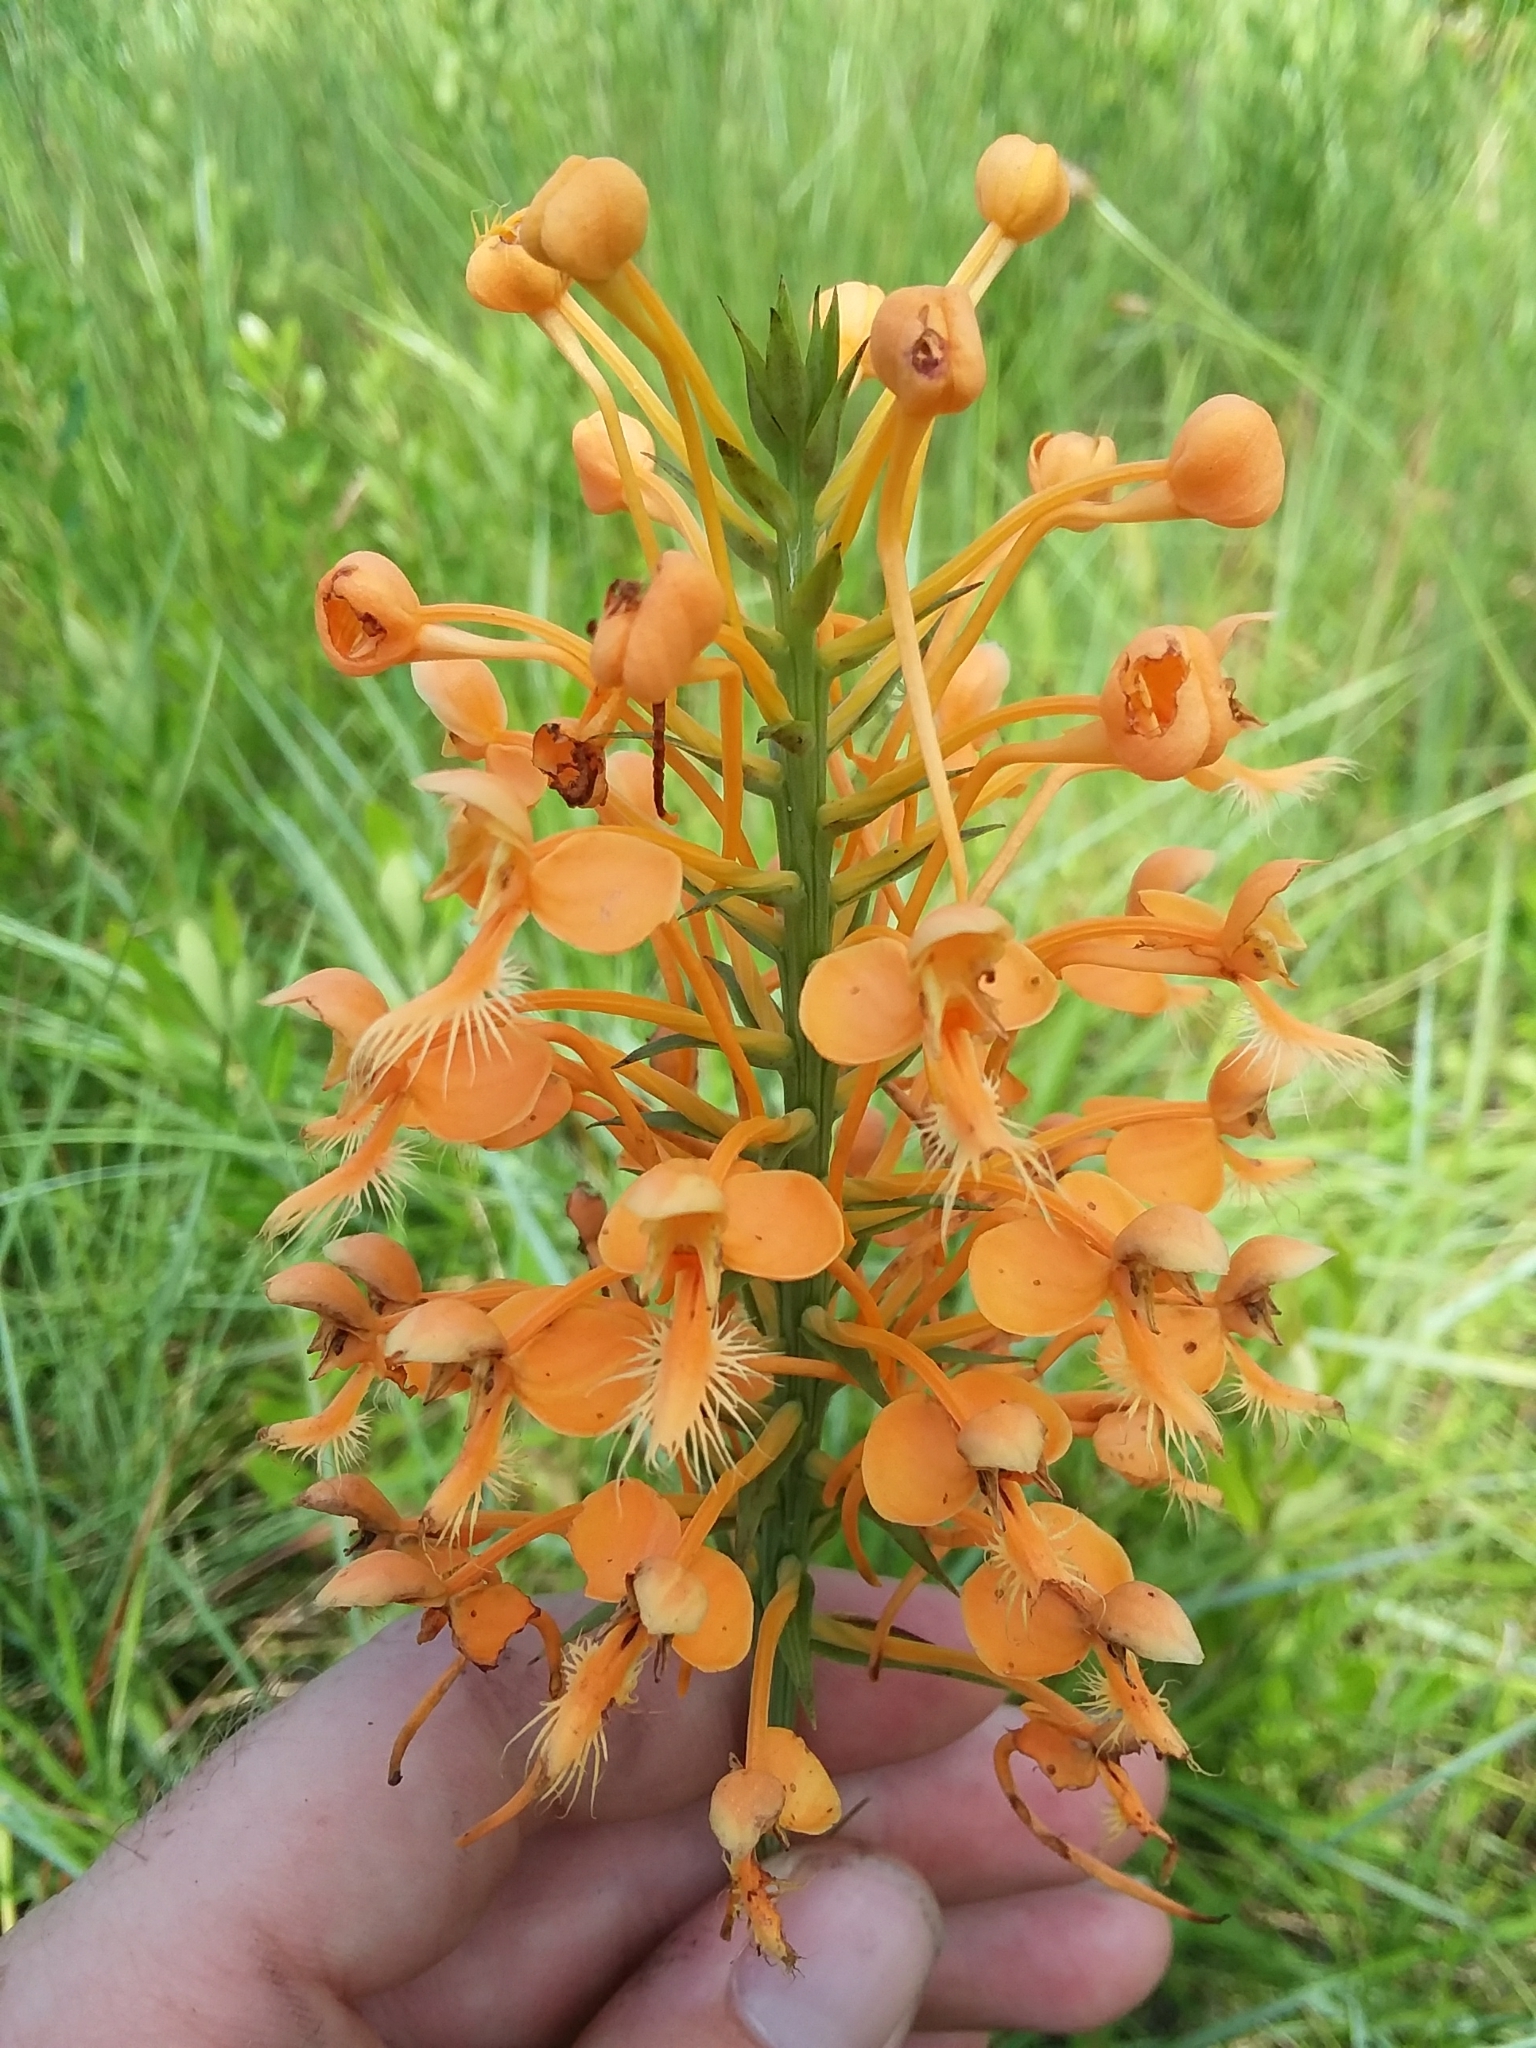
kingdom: Plantae
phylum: Tracheophyta
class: Liliopsida
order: Asparagales
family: Orchidaceae
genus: Platanthera
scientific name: Platanthera ciliaris
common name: Yellow fringed orchid
